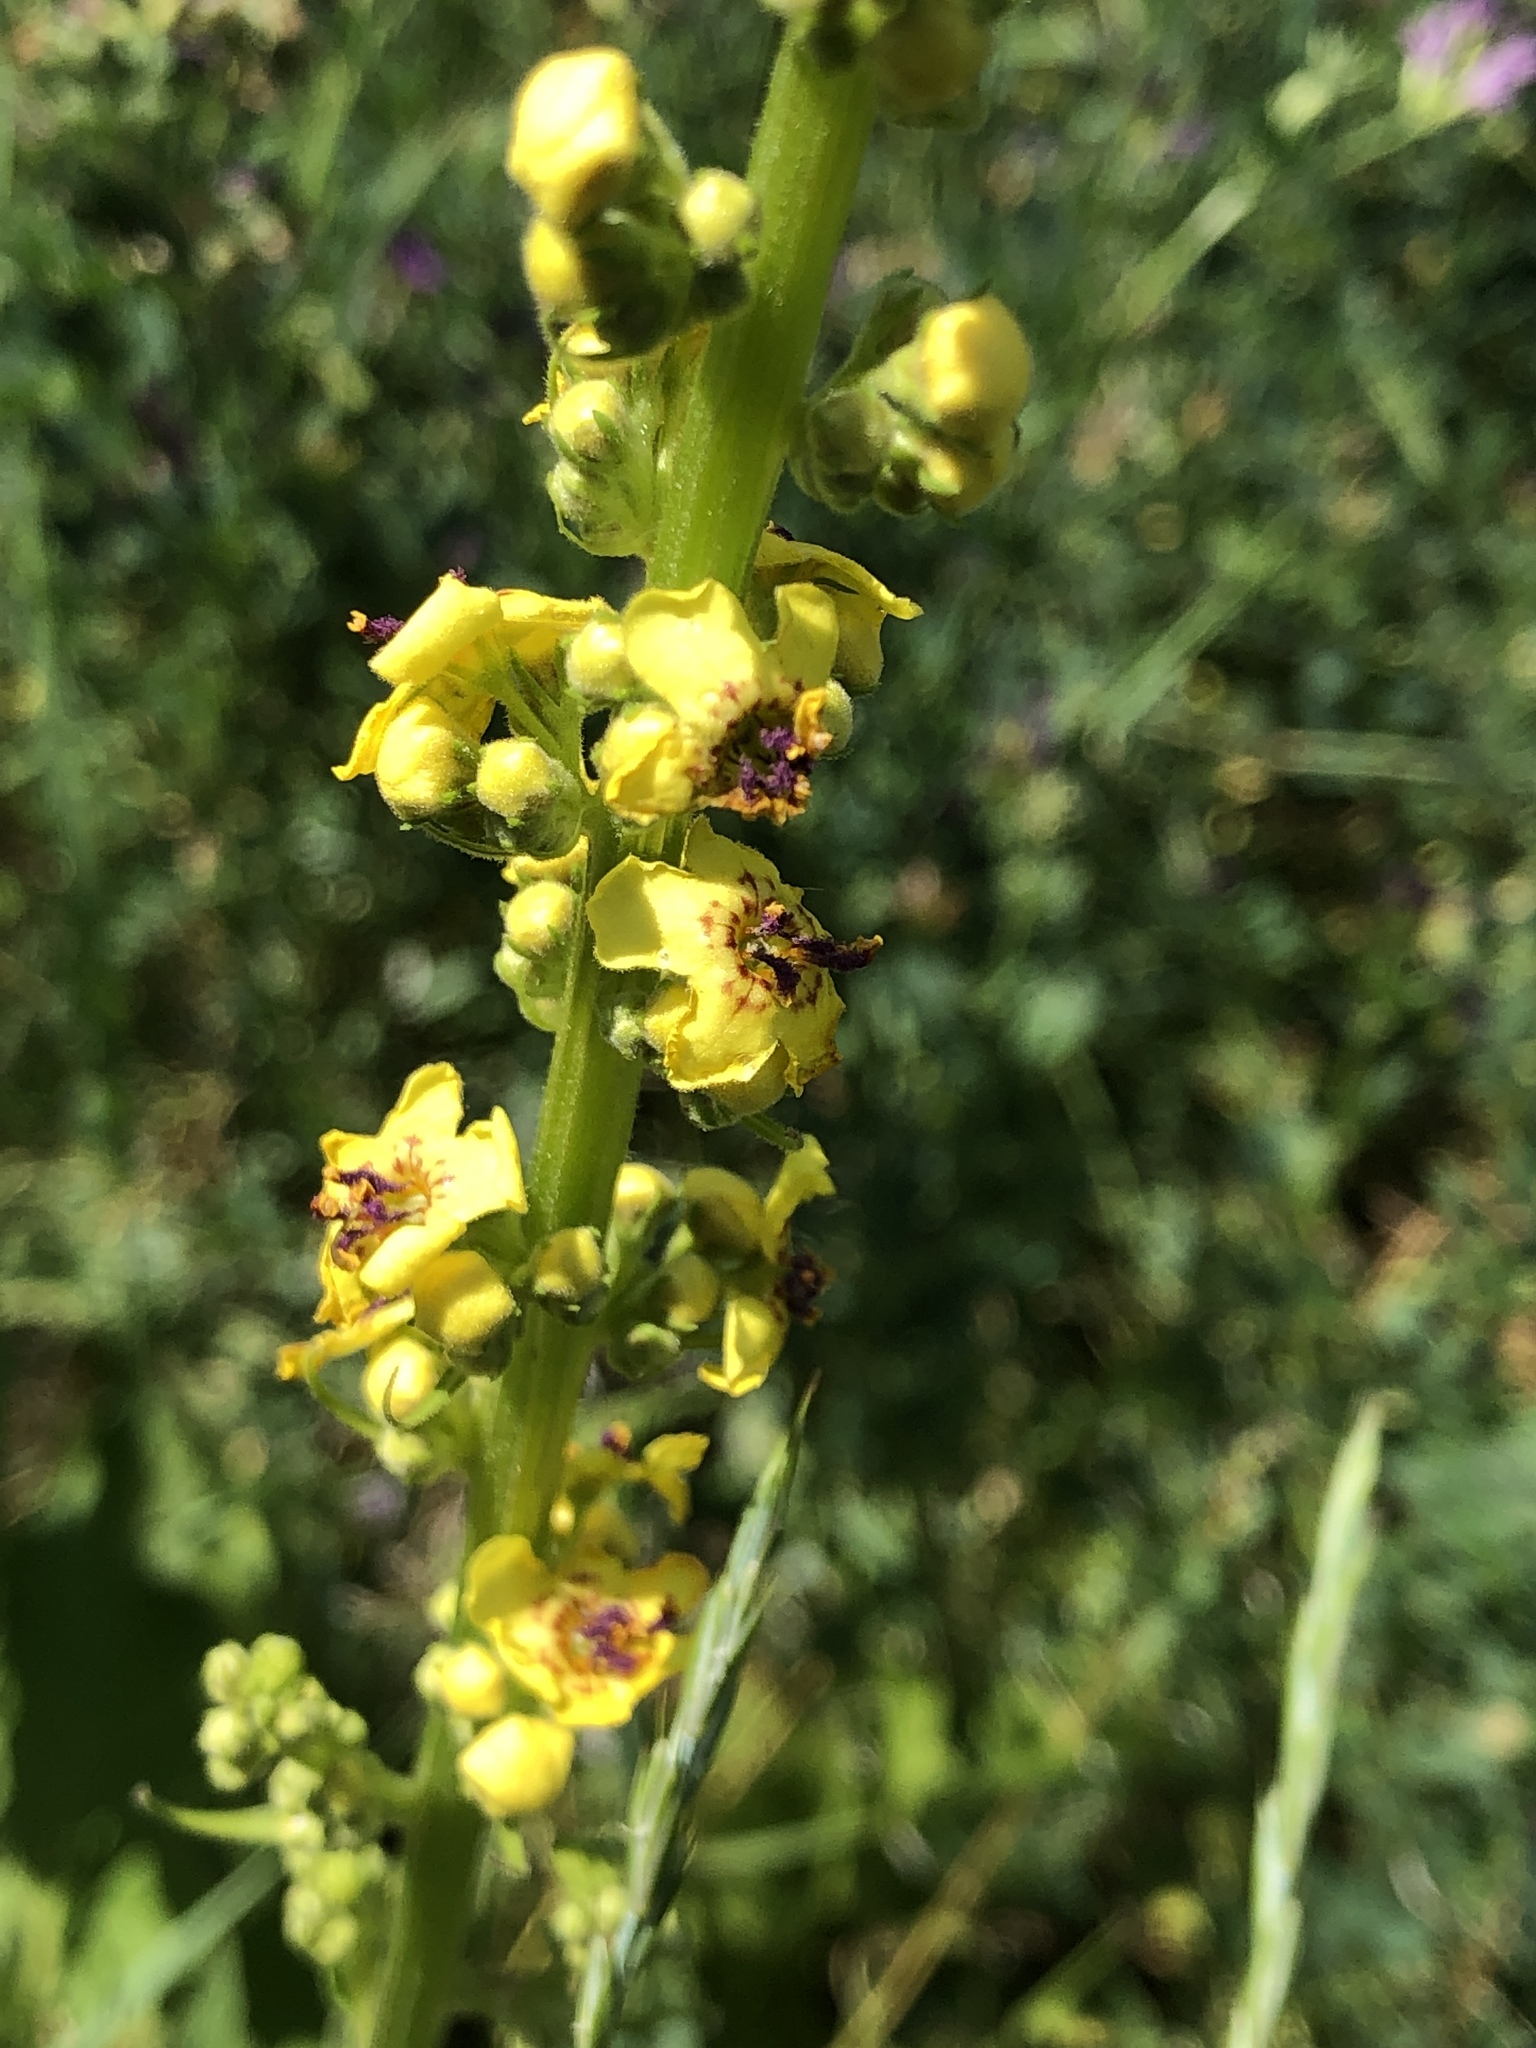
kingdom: Plantae
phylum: Tracheophyta
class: Magnoliopsida
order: Lamiales
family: Scrophulariaceae
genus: Verbascum
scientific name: Verbascum nigrum
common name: Dark mullein
